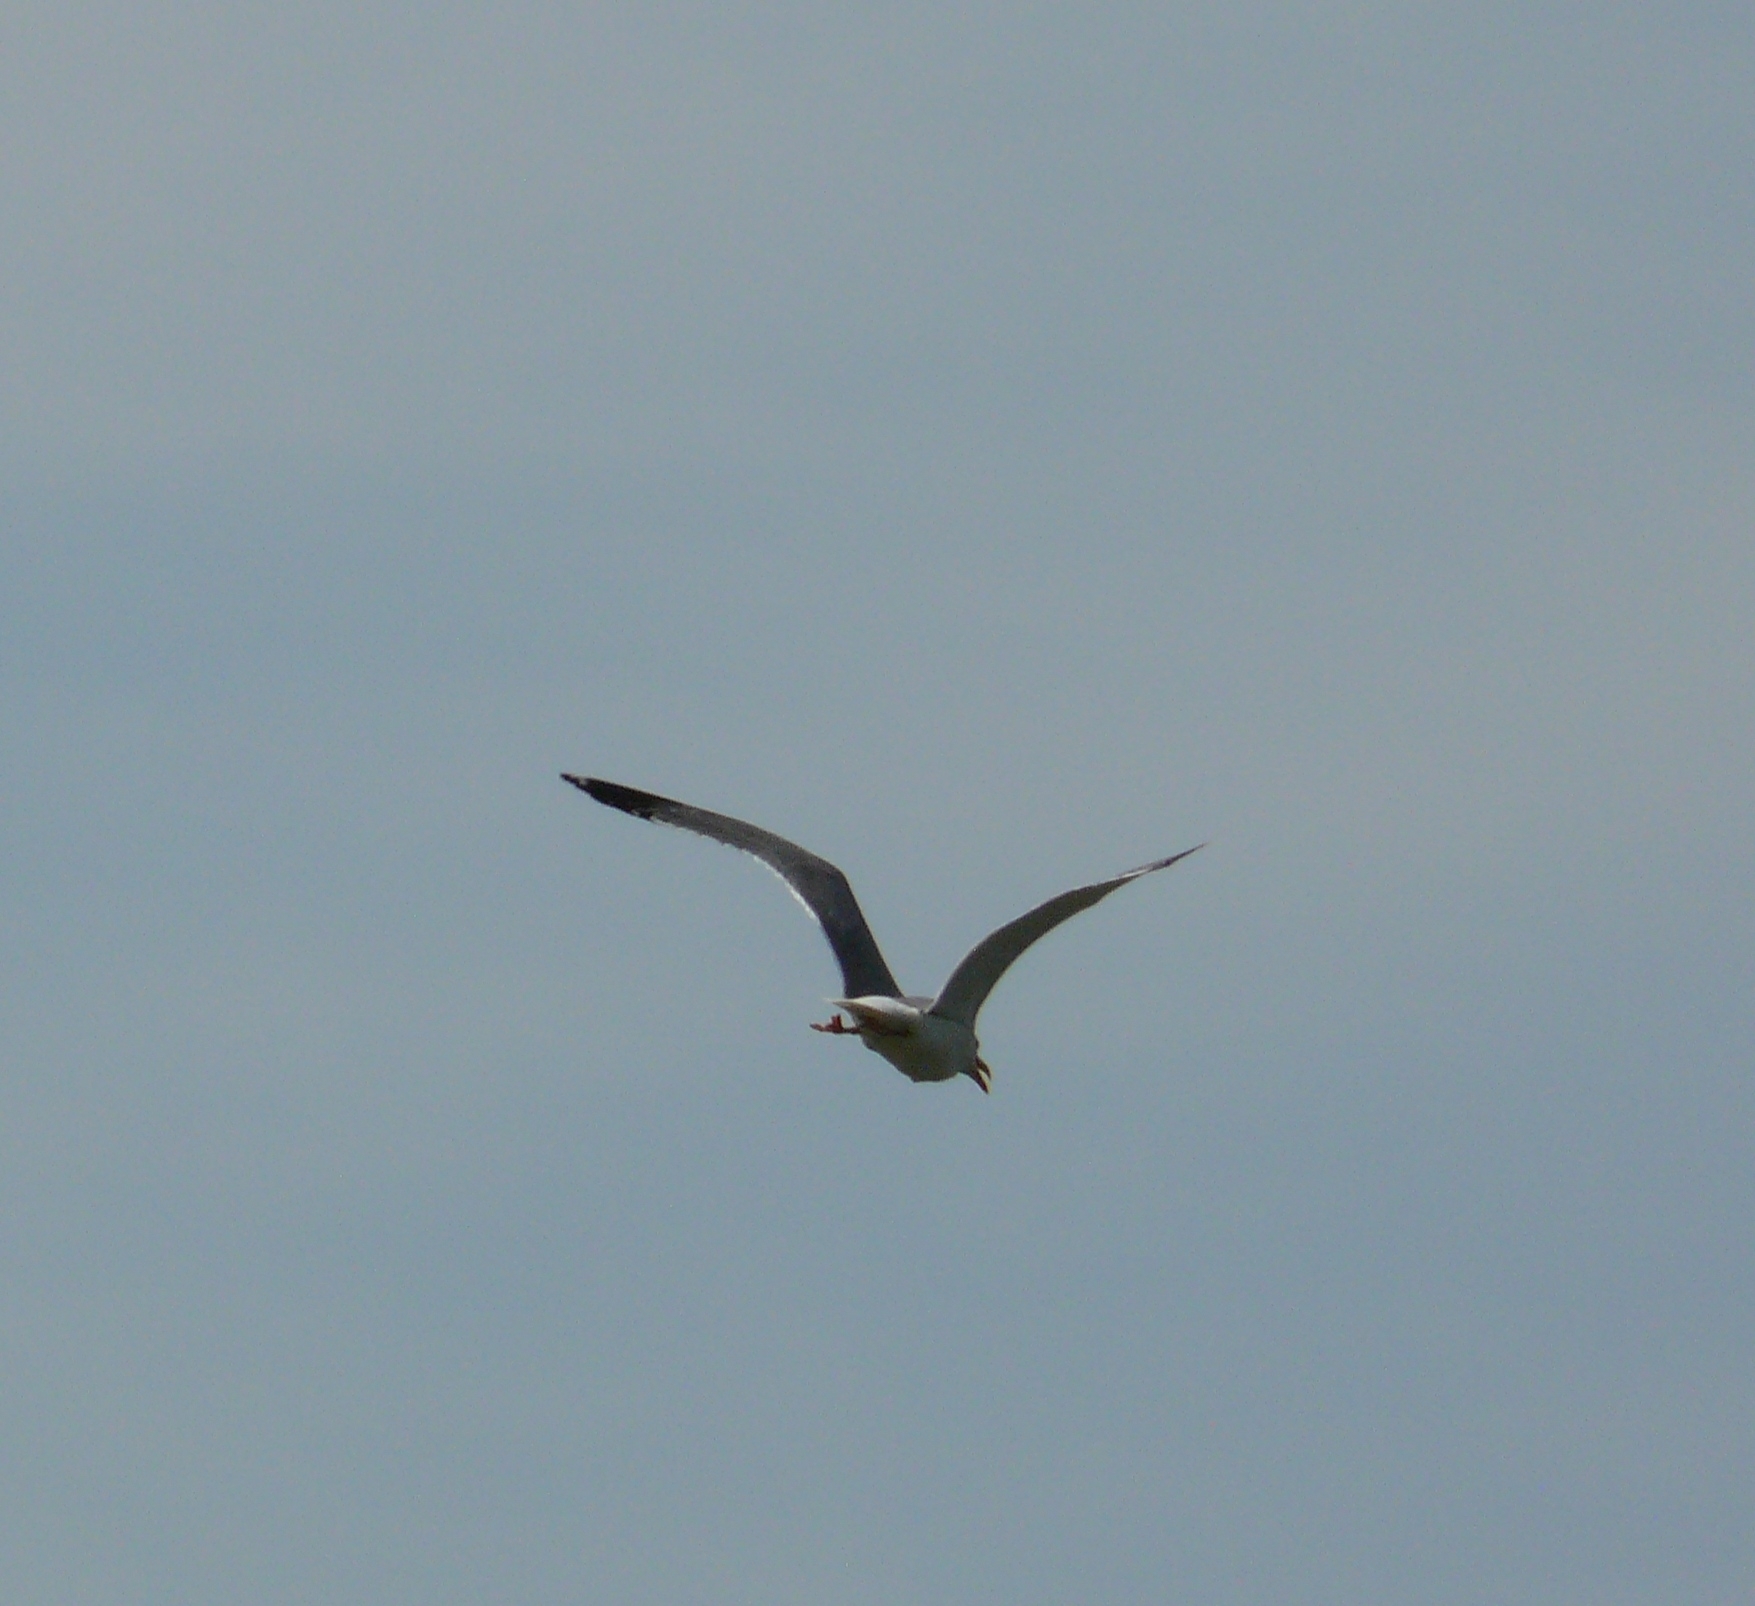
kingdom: Animalia
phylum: Chordata
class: Aves
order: Charadriiformes
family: Laridae
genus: Larus
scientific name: Larus fuscus
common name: Lesser black-backed gull
